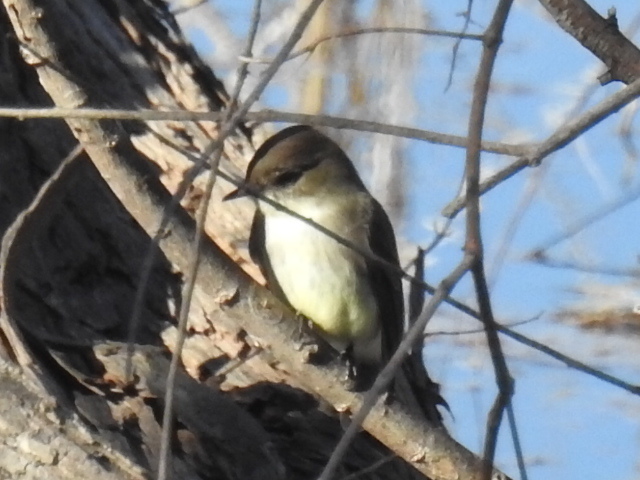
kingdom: Animalia
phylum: Chordata
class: Aves
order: Passeriformes
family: Tyrannidae
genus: Sayornis
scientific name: Sayornis phoebe
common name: Eastern phoebe
